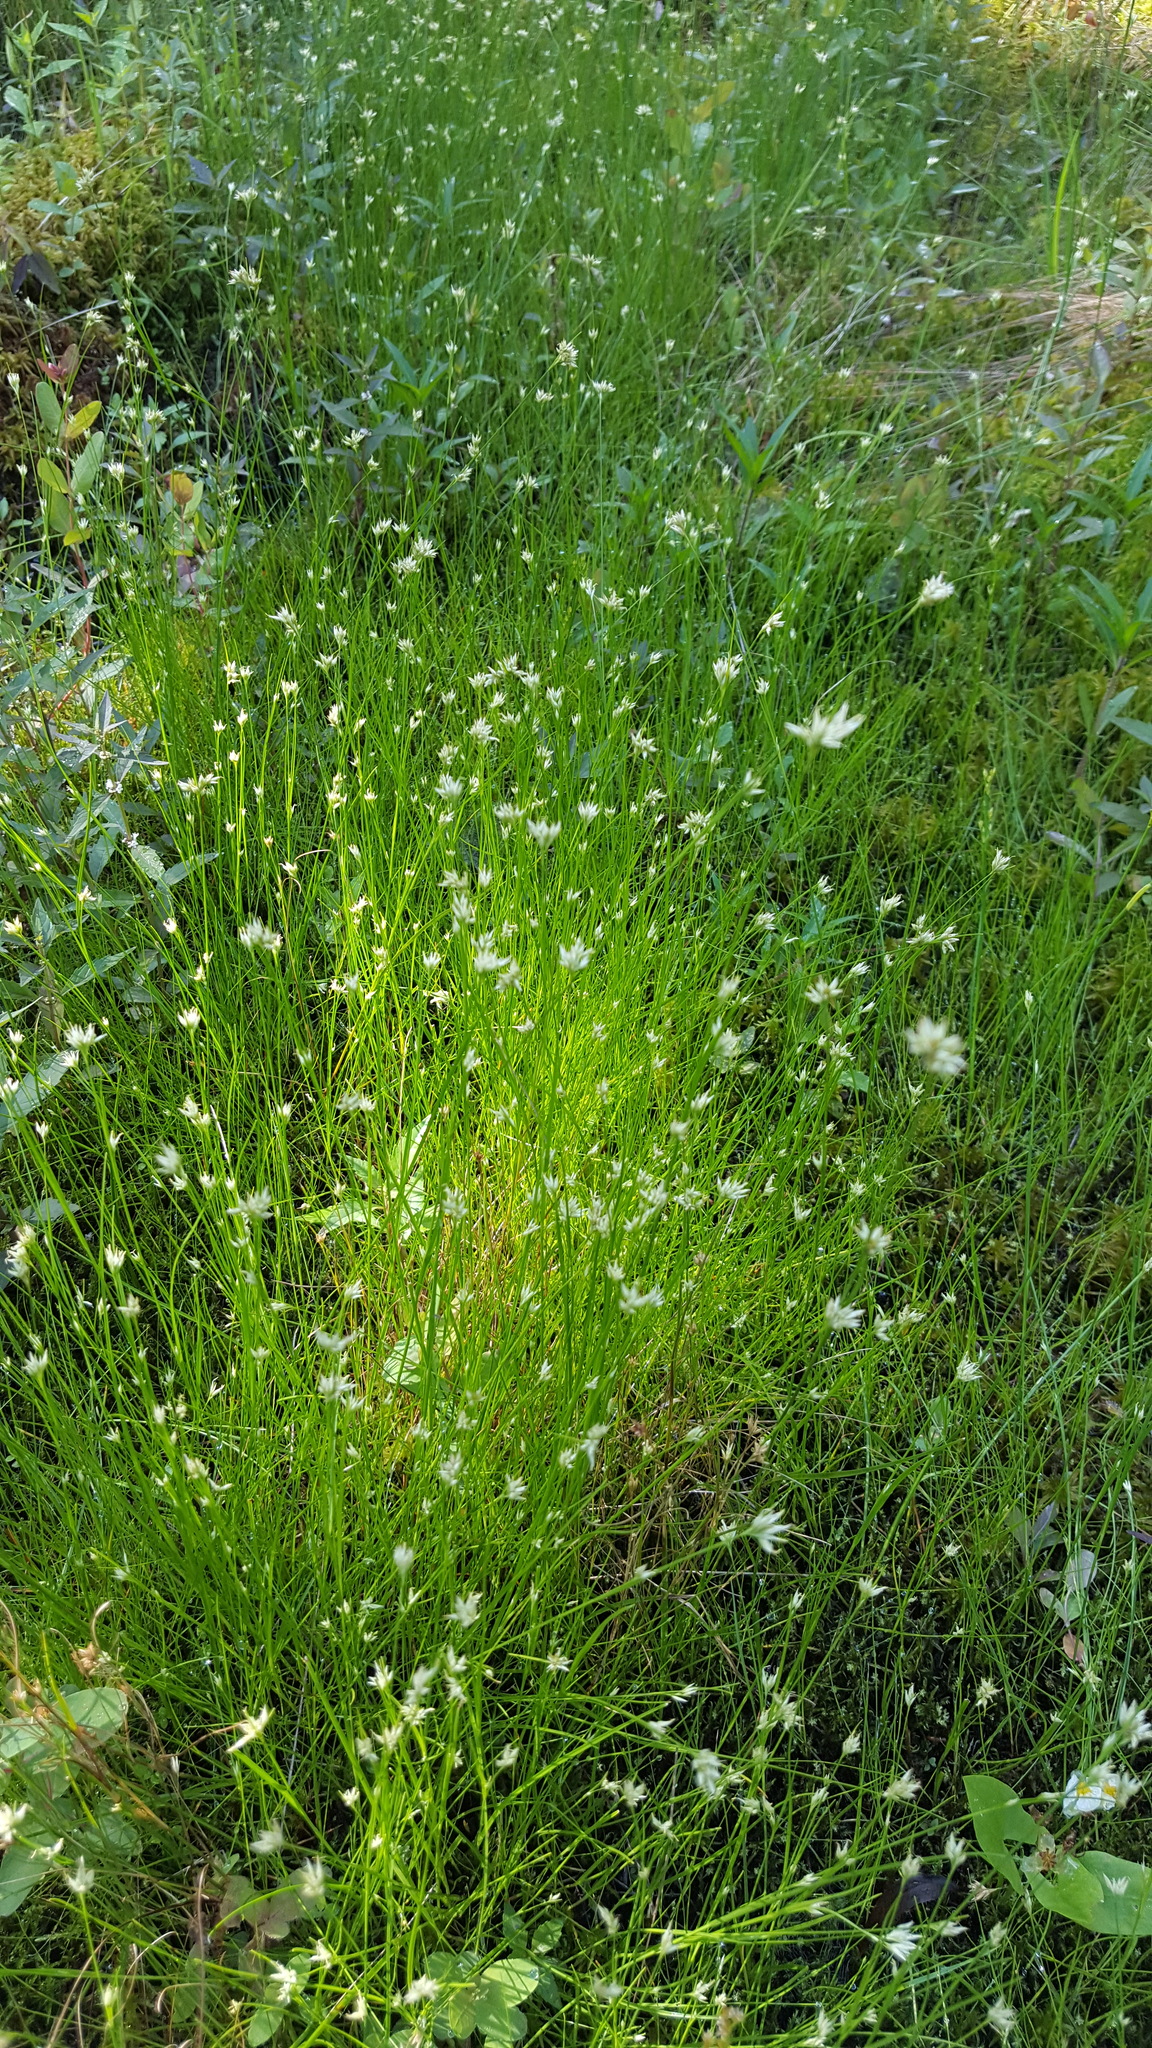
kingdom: Plantae
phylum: Tracheophyta
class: Liliopsida
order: Poales
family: Cyperaceae
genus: Rhynchospora
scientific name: Rhynchospora alba
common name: White beak-sedge
